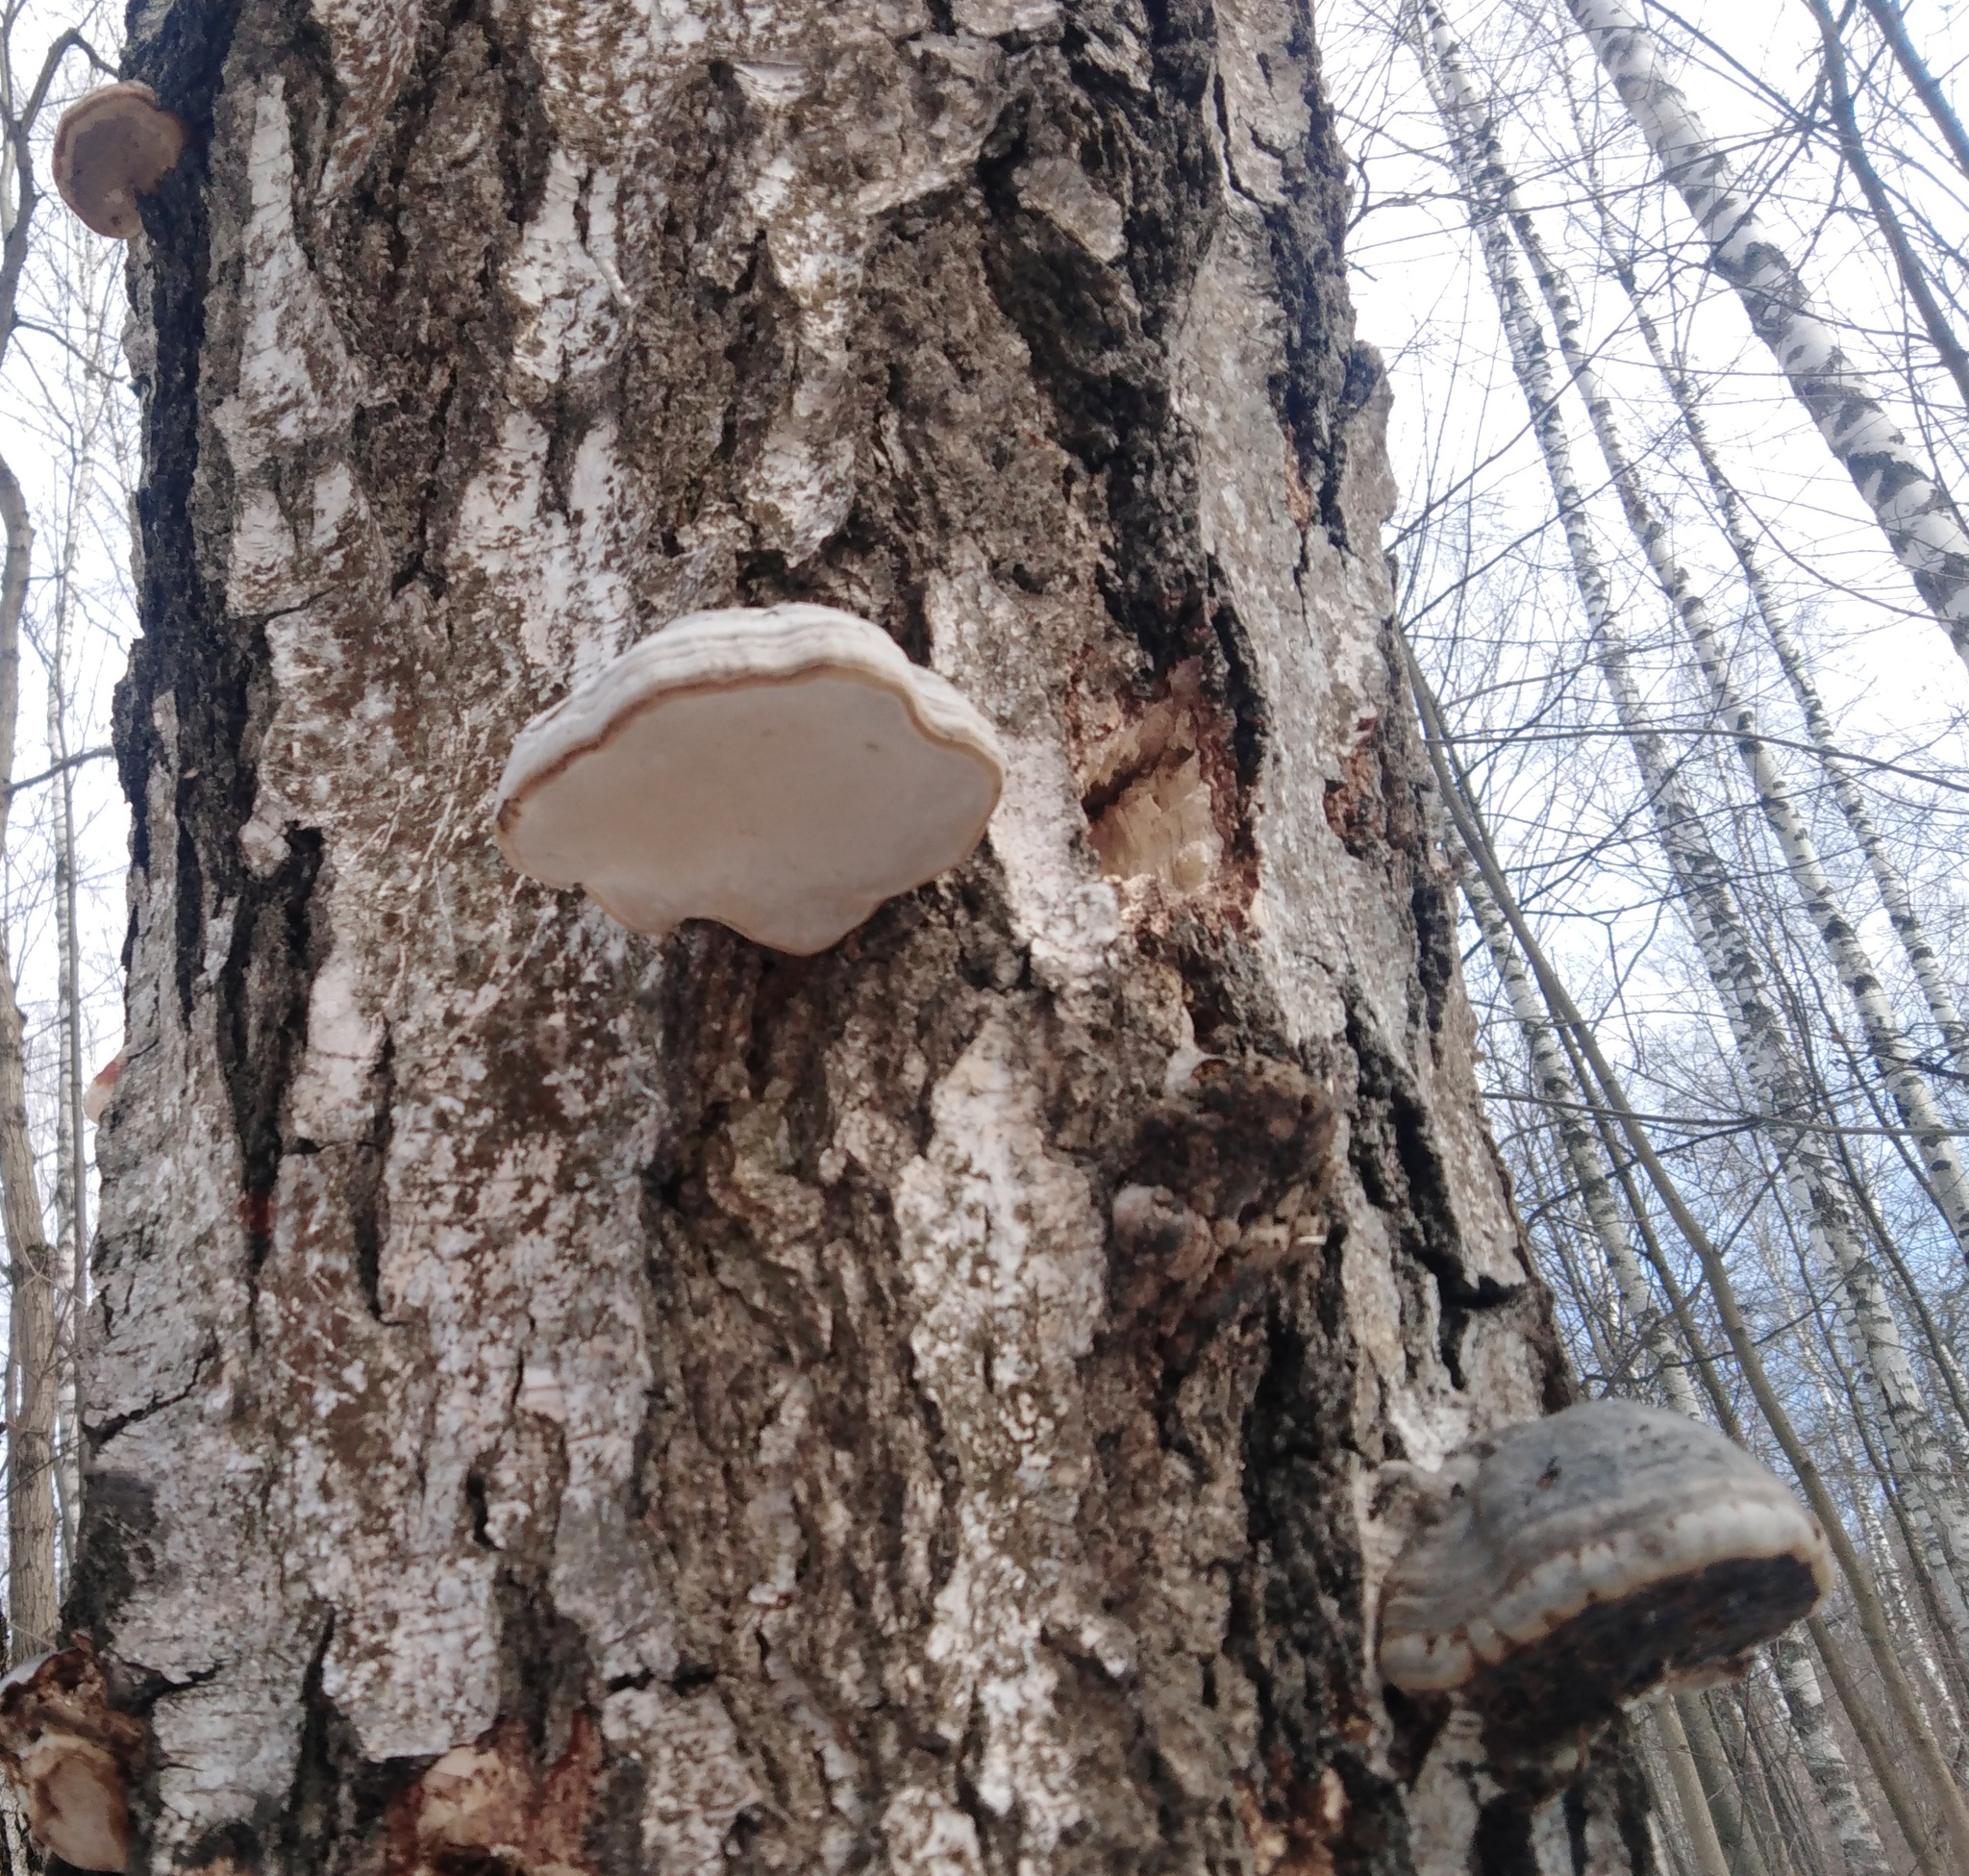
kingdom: Fungi
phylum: Basidiomycota
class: Agaricomycetes
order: Polyporales
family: Polyporaceae
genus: Fomes
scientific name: Fomes fomentarius
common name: Hoof fungus
